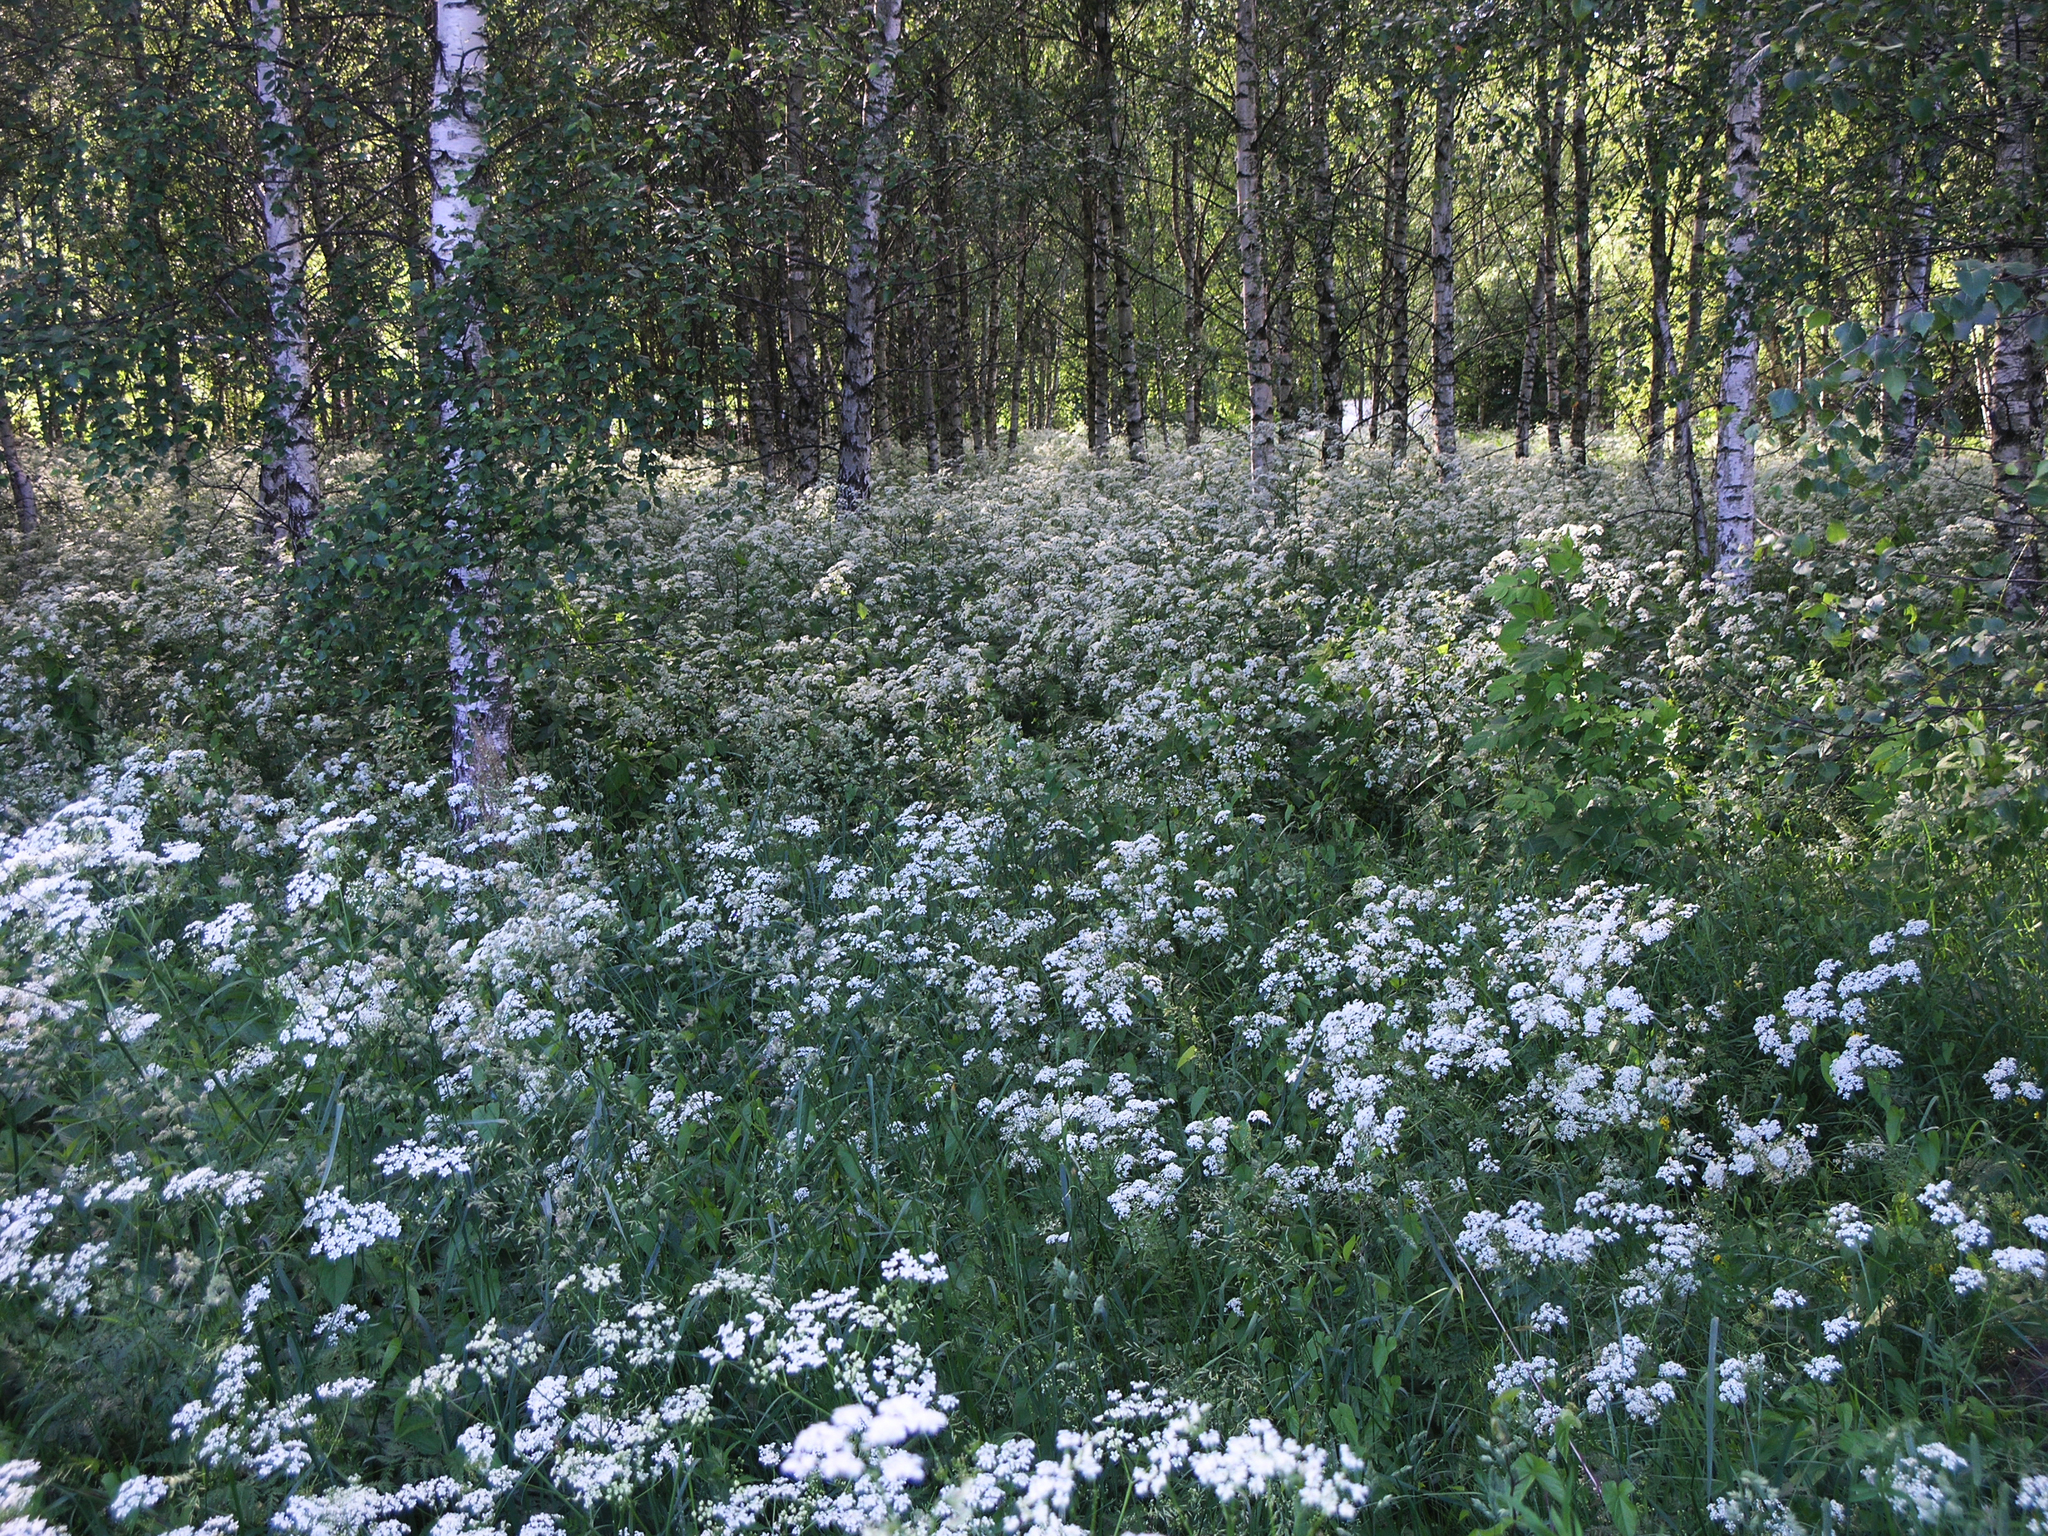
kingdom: Plantae
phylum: Tracheophyta
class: Magnoliopsida
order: Apiales
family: Apiaceae
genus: Anthriscus
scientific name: Anthriscus sylvestris
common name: Cow parsley
